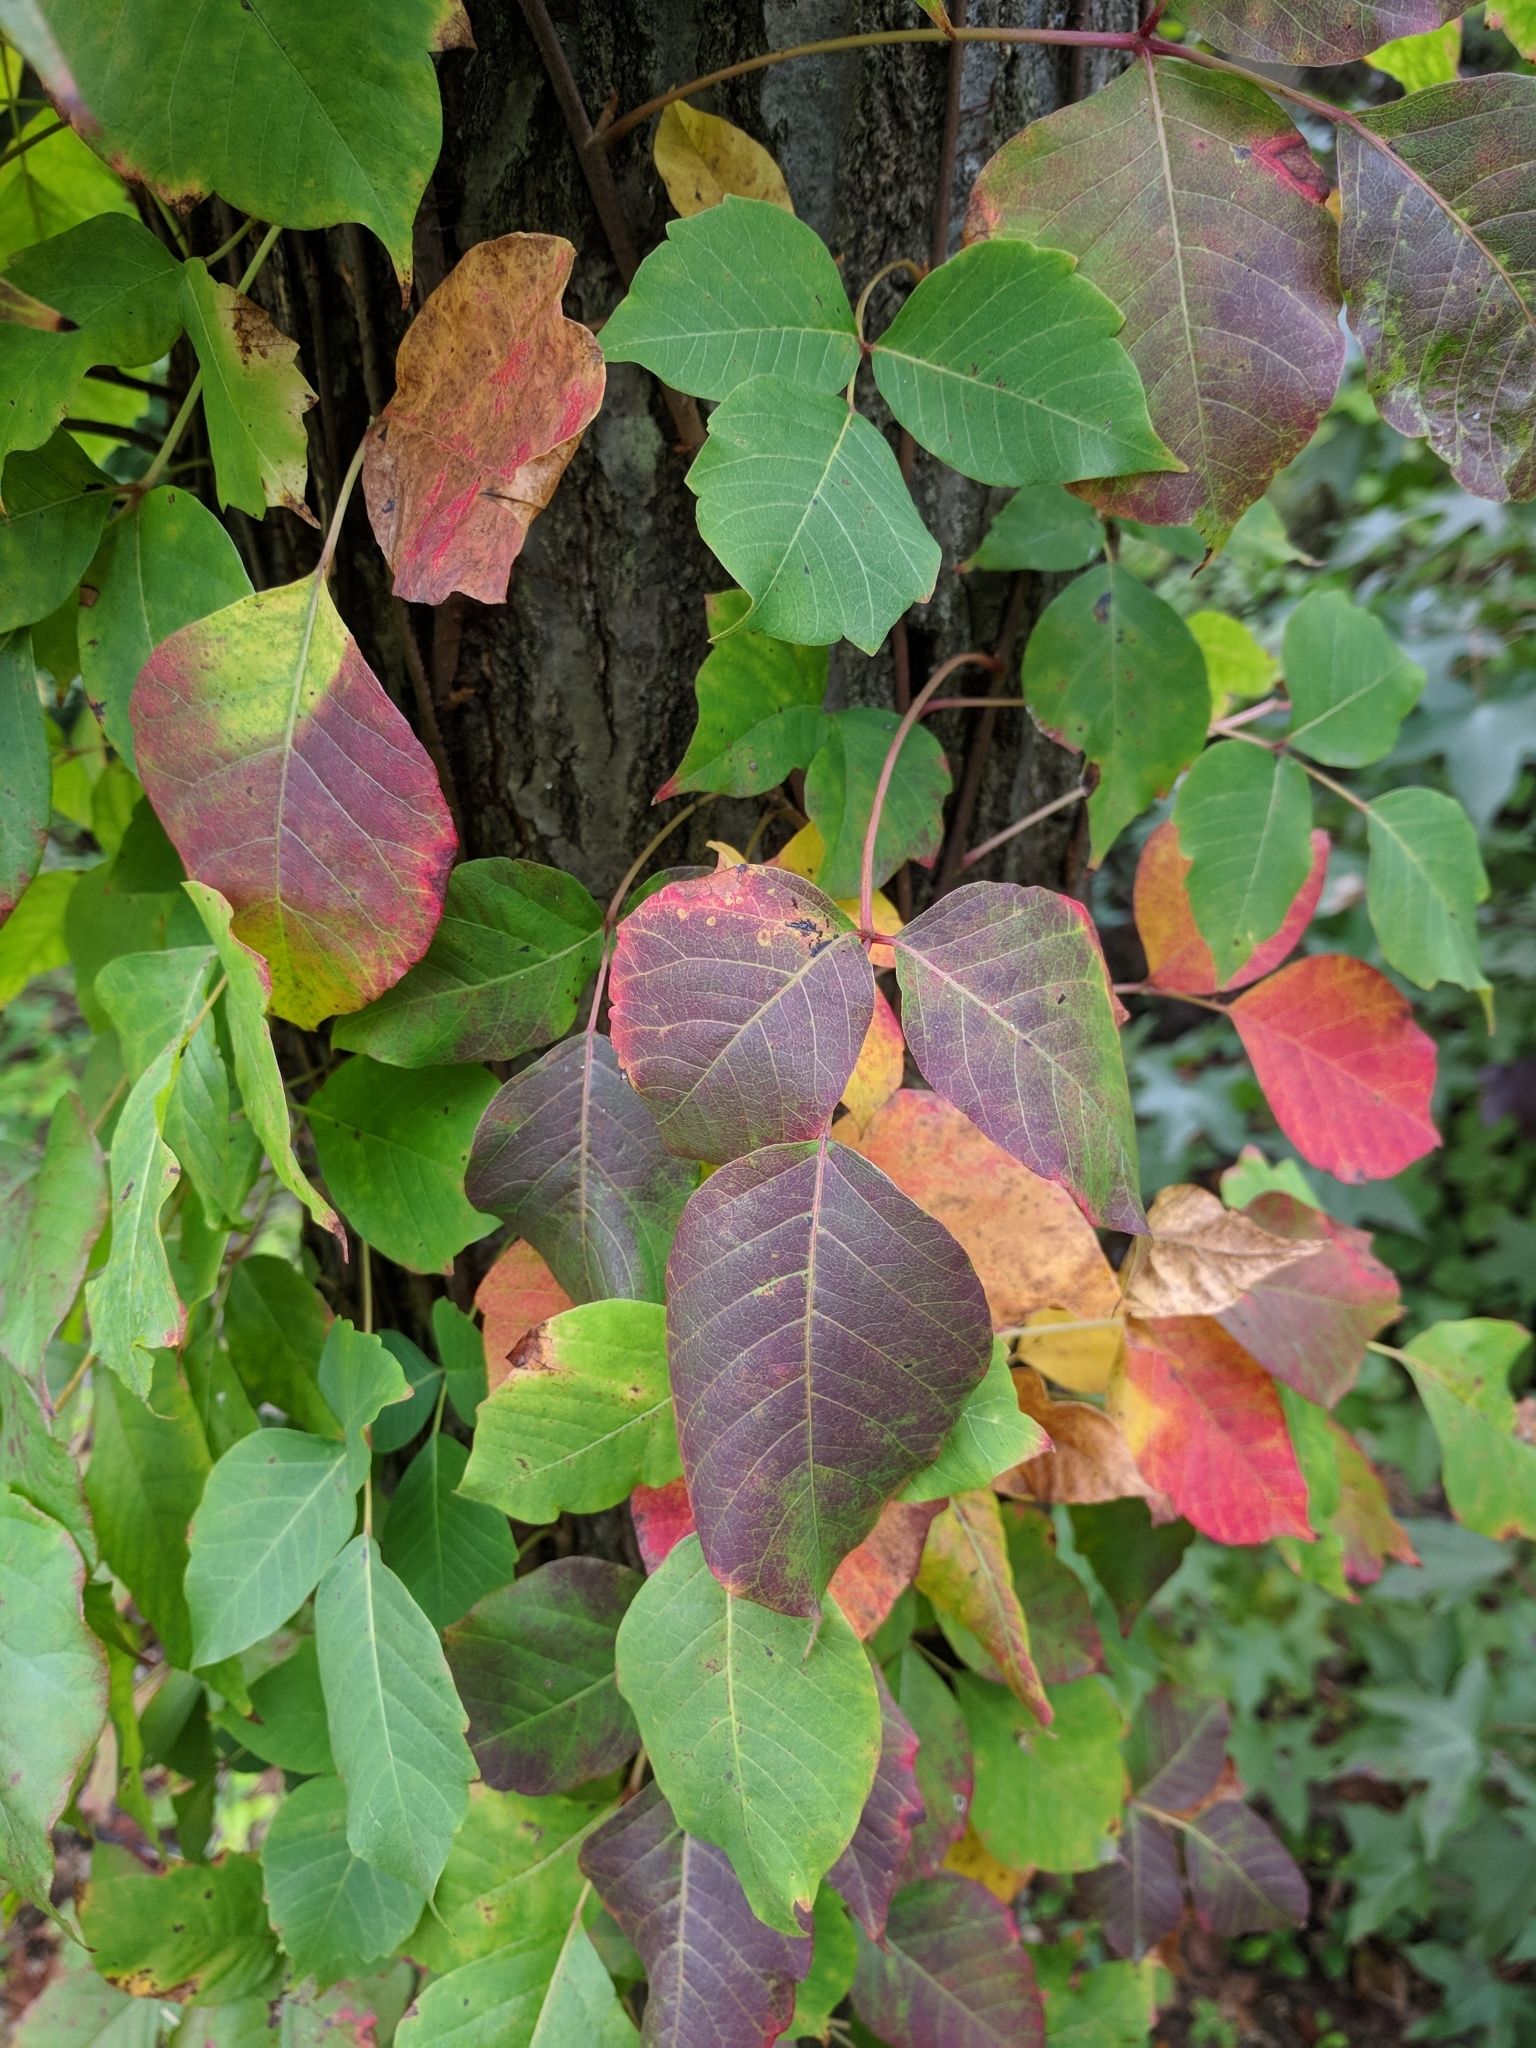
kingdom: Plantae
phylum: Tracheophyta
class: Magnoliopsida
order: Sapindales
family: Anacardiaceae
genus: Toxicodendron
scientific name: Toxicodendron radicans
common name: Poison ivy
